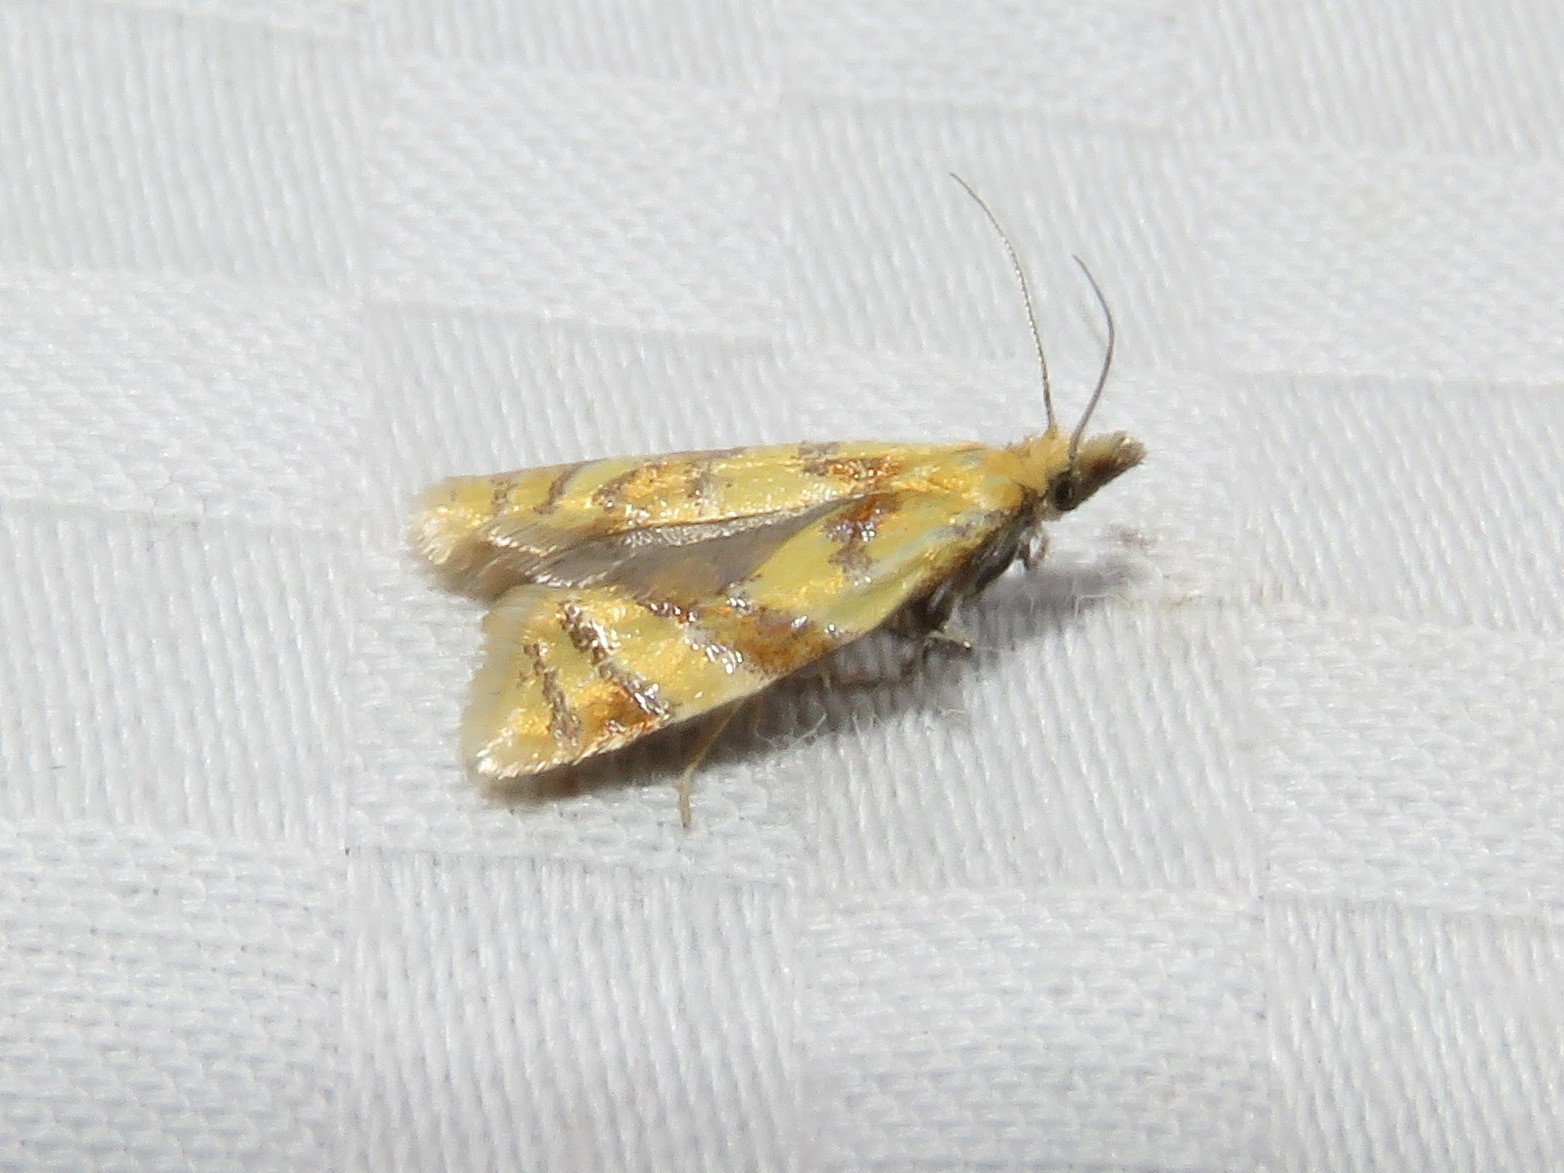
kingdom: Animalia
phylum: Arthropoda
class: Insecta
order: Lepidoptera
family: Tortricidae
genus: Phtheochroa
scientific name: Phtheochroa vitellinana
